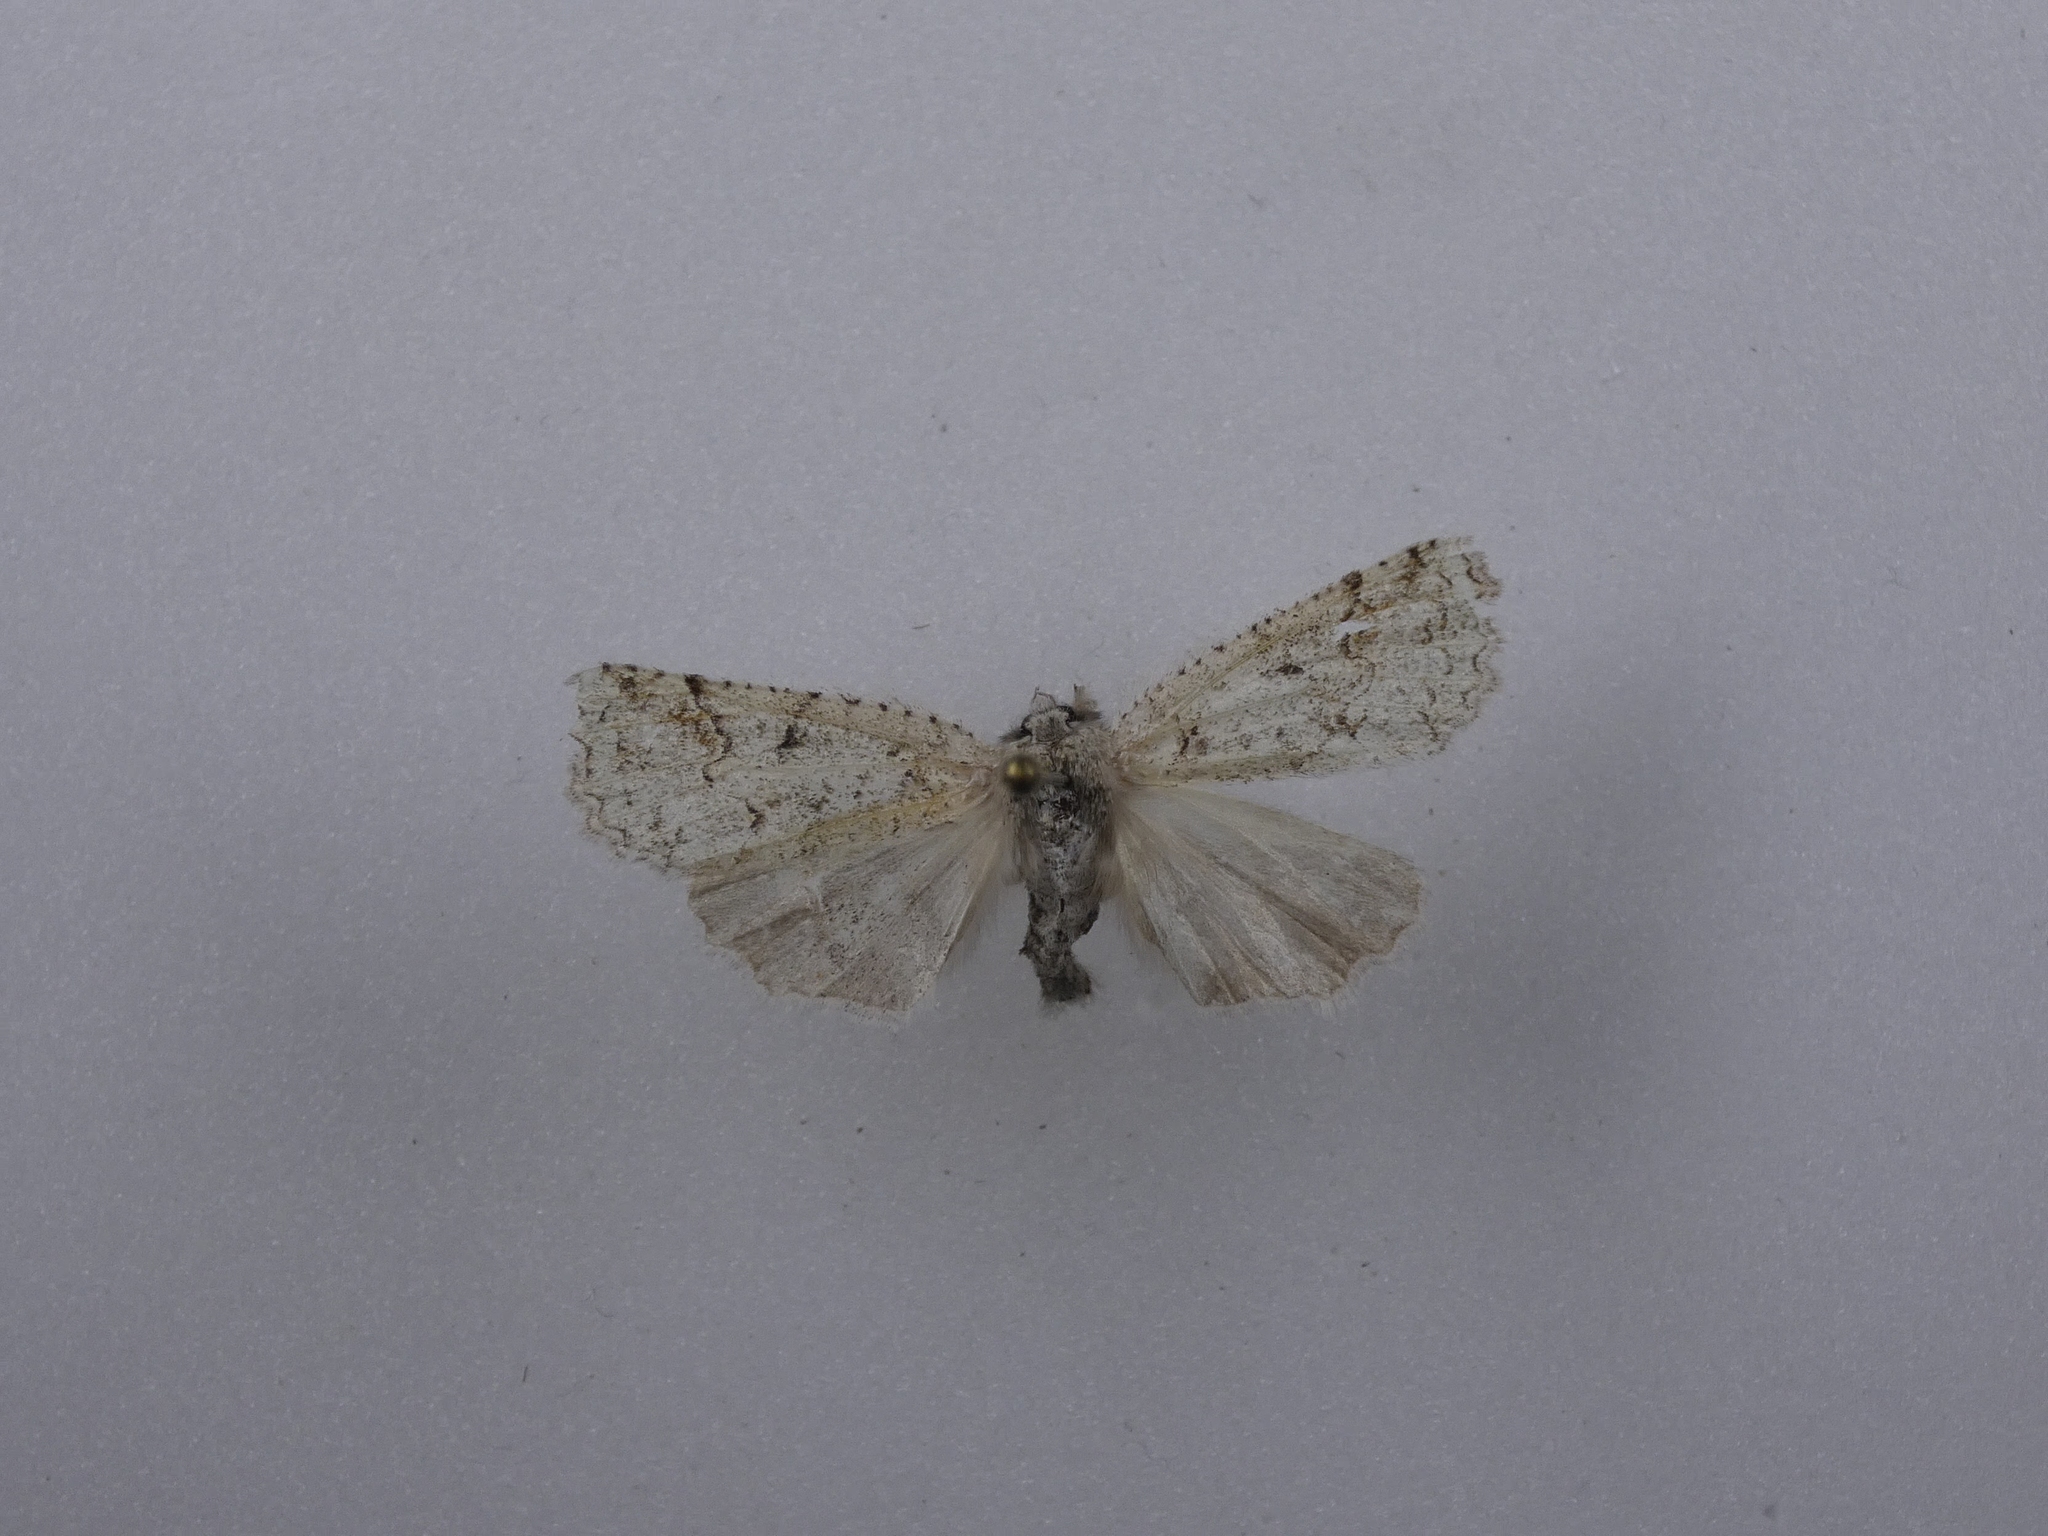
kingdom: Animalia
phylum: Arthropoda
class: Insecta
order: Lepidoptera
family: Geometridae
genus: Declana
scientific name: Declana floccosa
